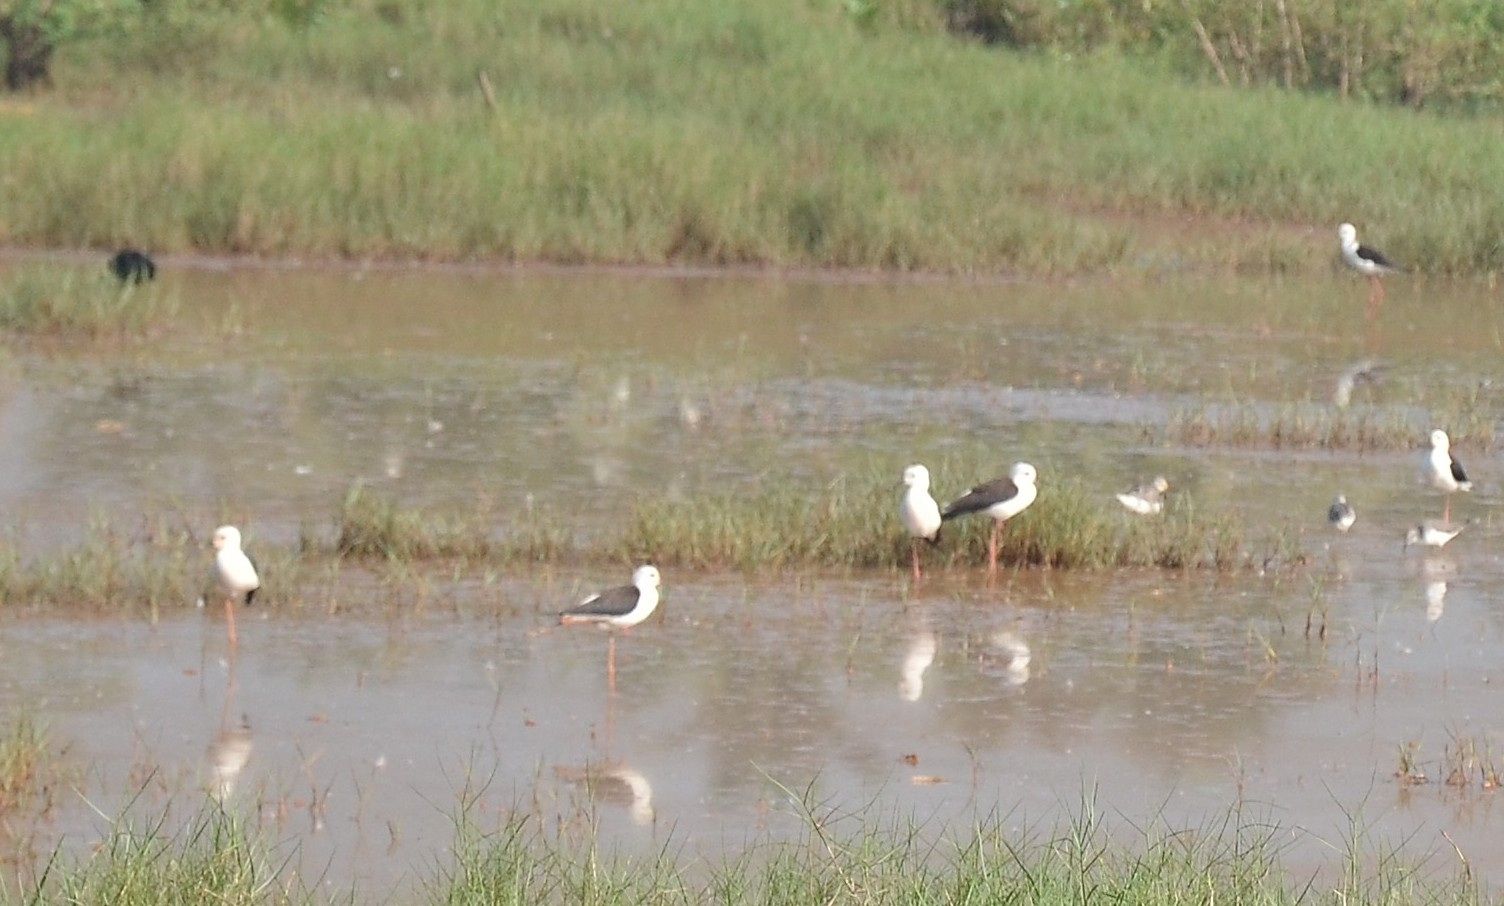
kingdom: Animalia
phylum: Chordata
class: Aves
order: Charadriiformes
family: Recurvirostridae
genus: Himantopus
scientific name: Himantopus himantopus
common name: Black-winged stilt
